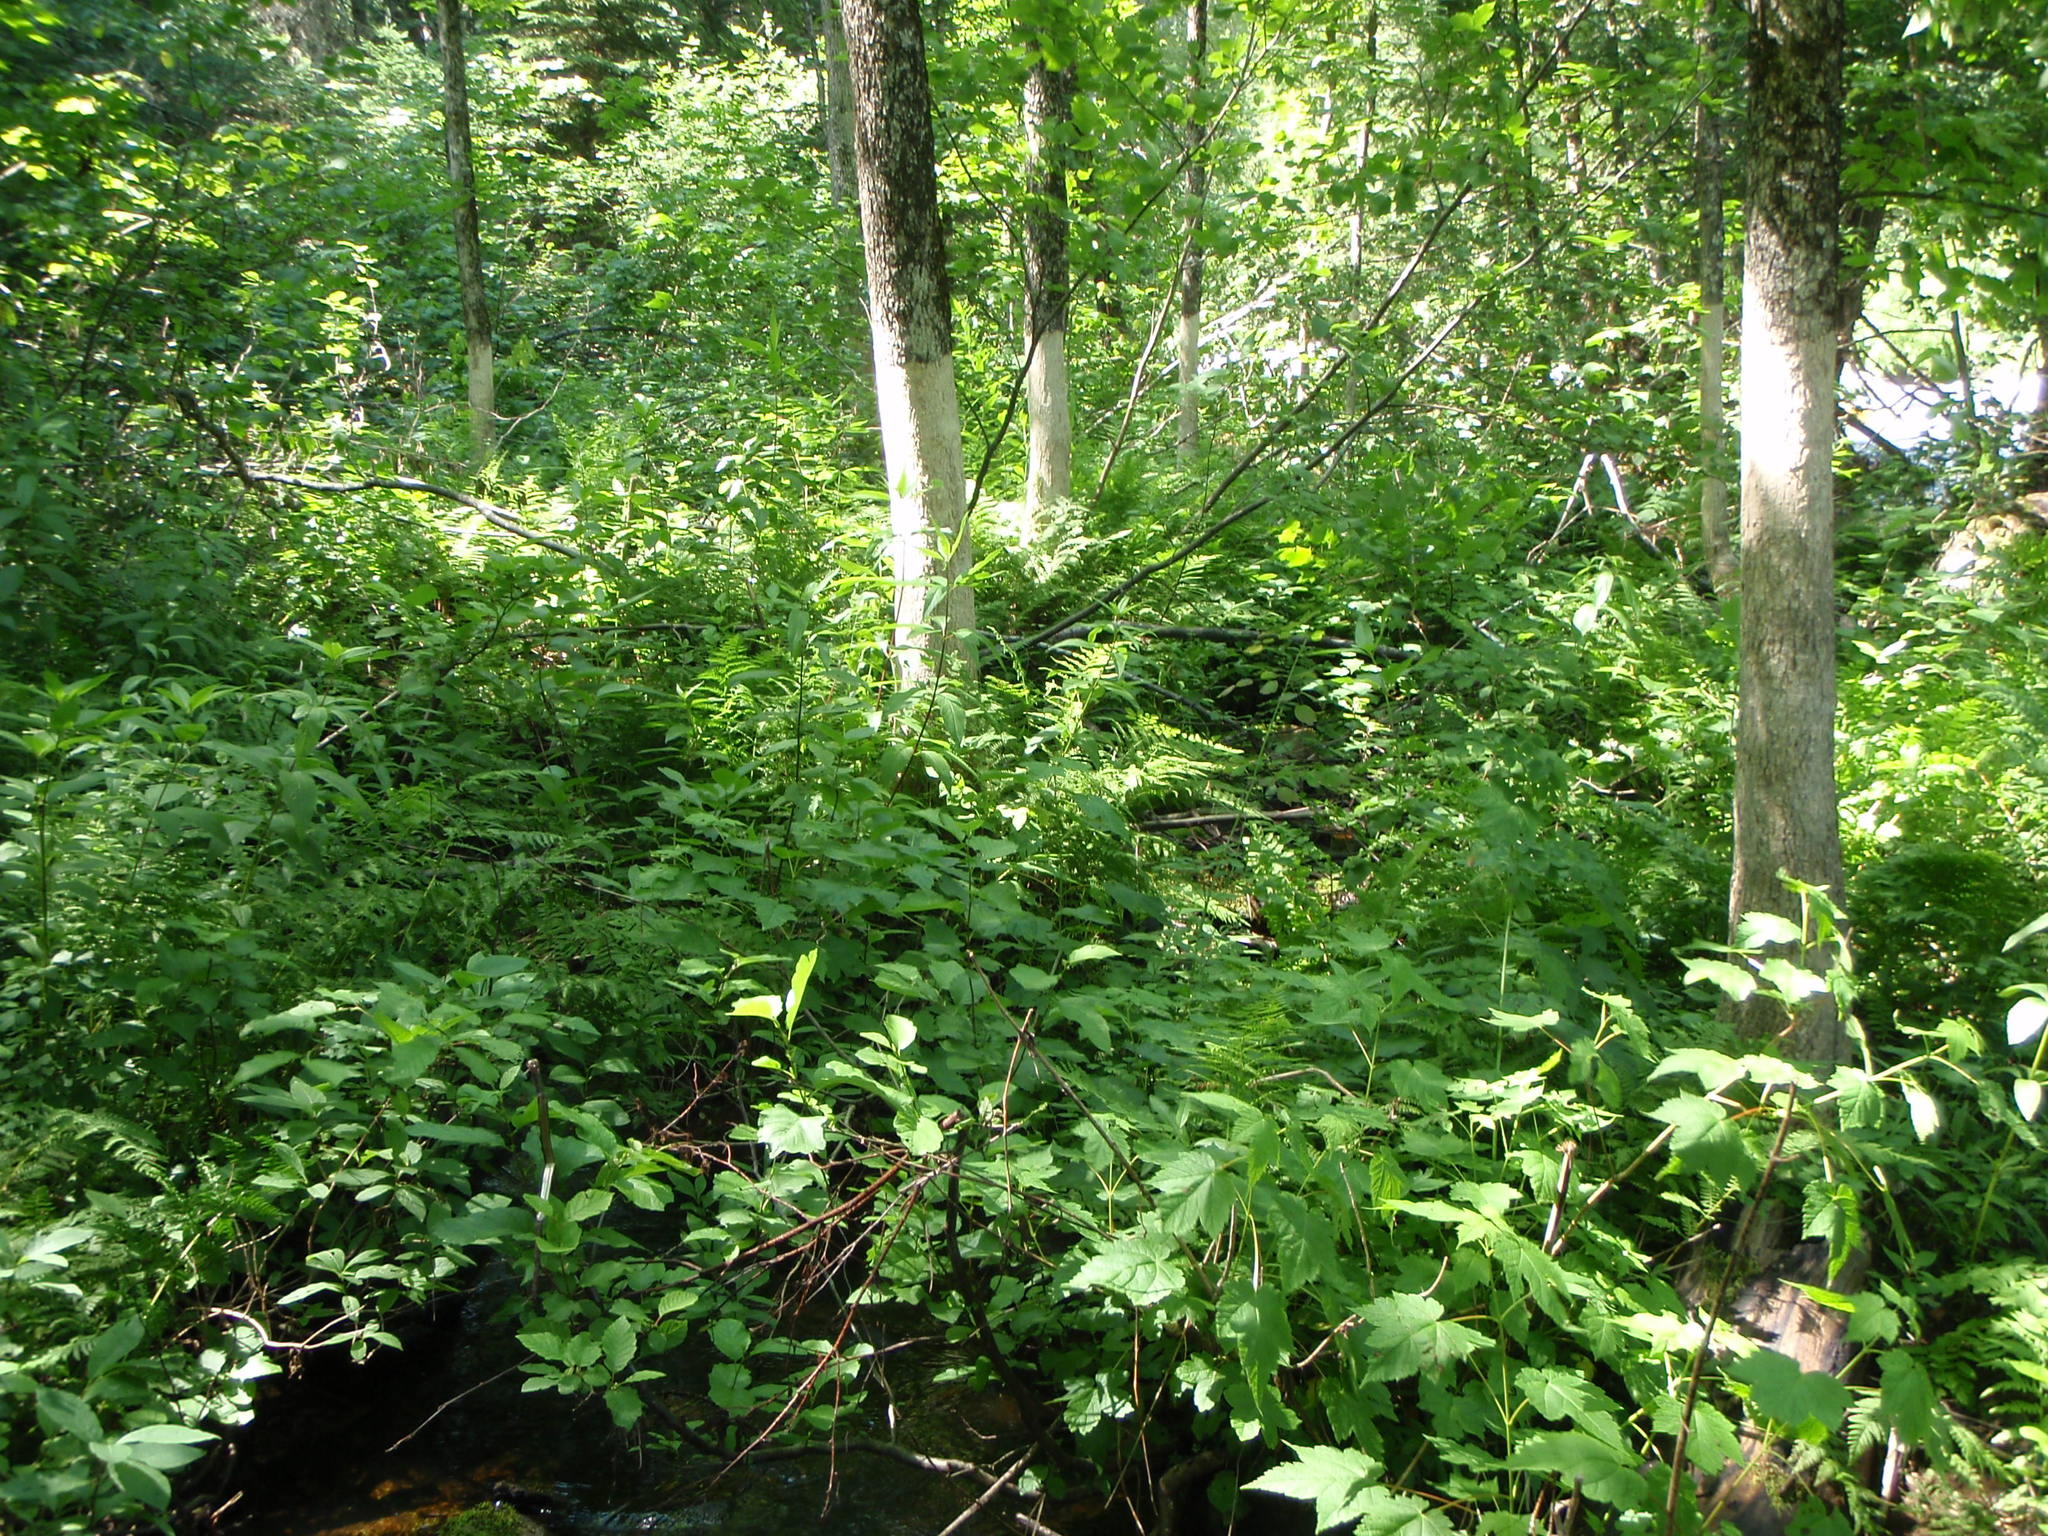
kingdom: Plantae
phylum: Tracheophyta
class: Magnoliopsida
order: Lamiales
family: Oleaceae
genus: Fraxinus
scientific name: Fraxinus nigra
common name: Black ash
